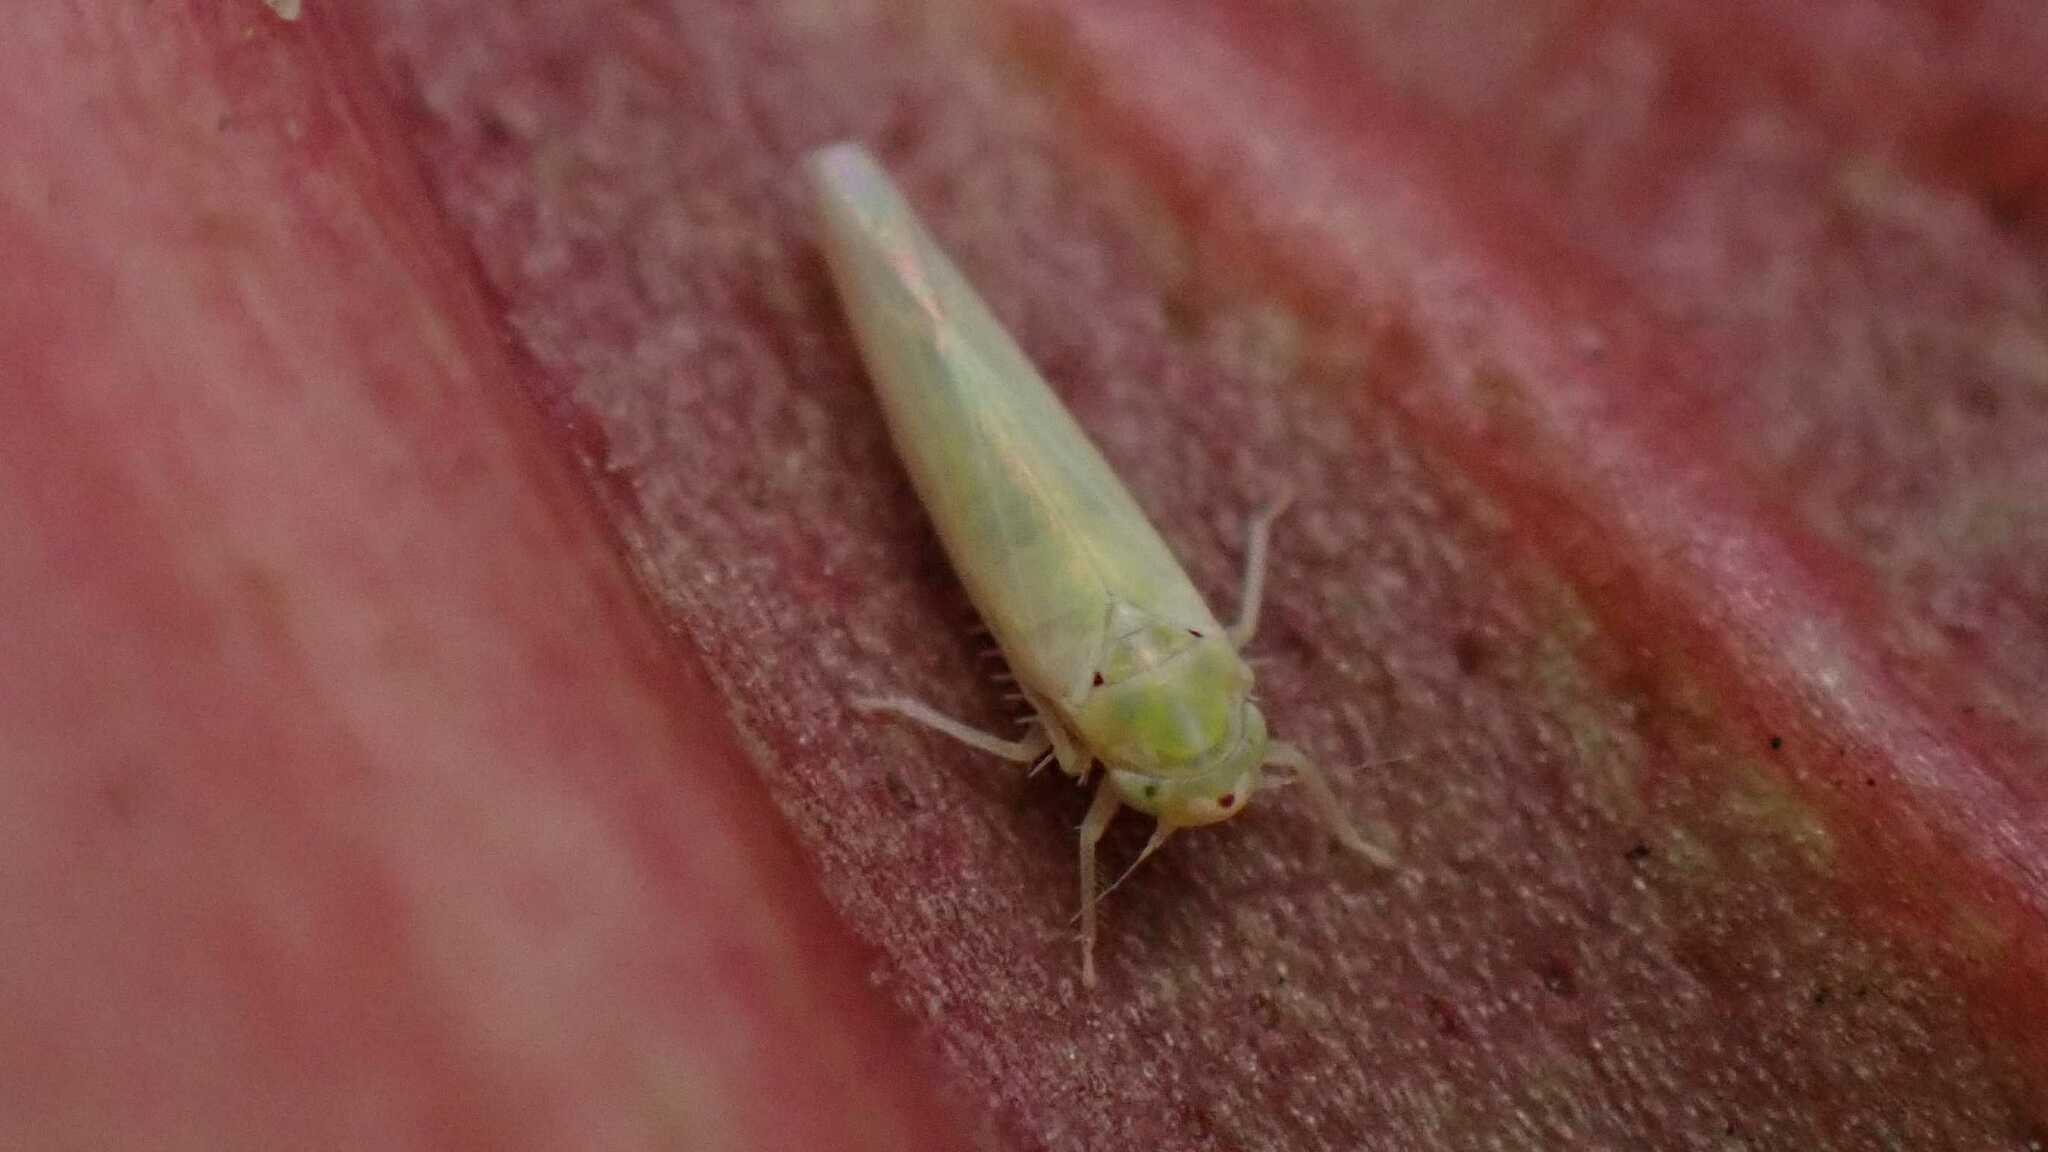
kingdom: Animalia
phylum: Arthropoda
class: Insecta
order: Hemiptera
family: Cicadellidae
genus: Zygina
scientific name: Zygina nivea
